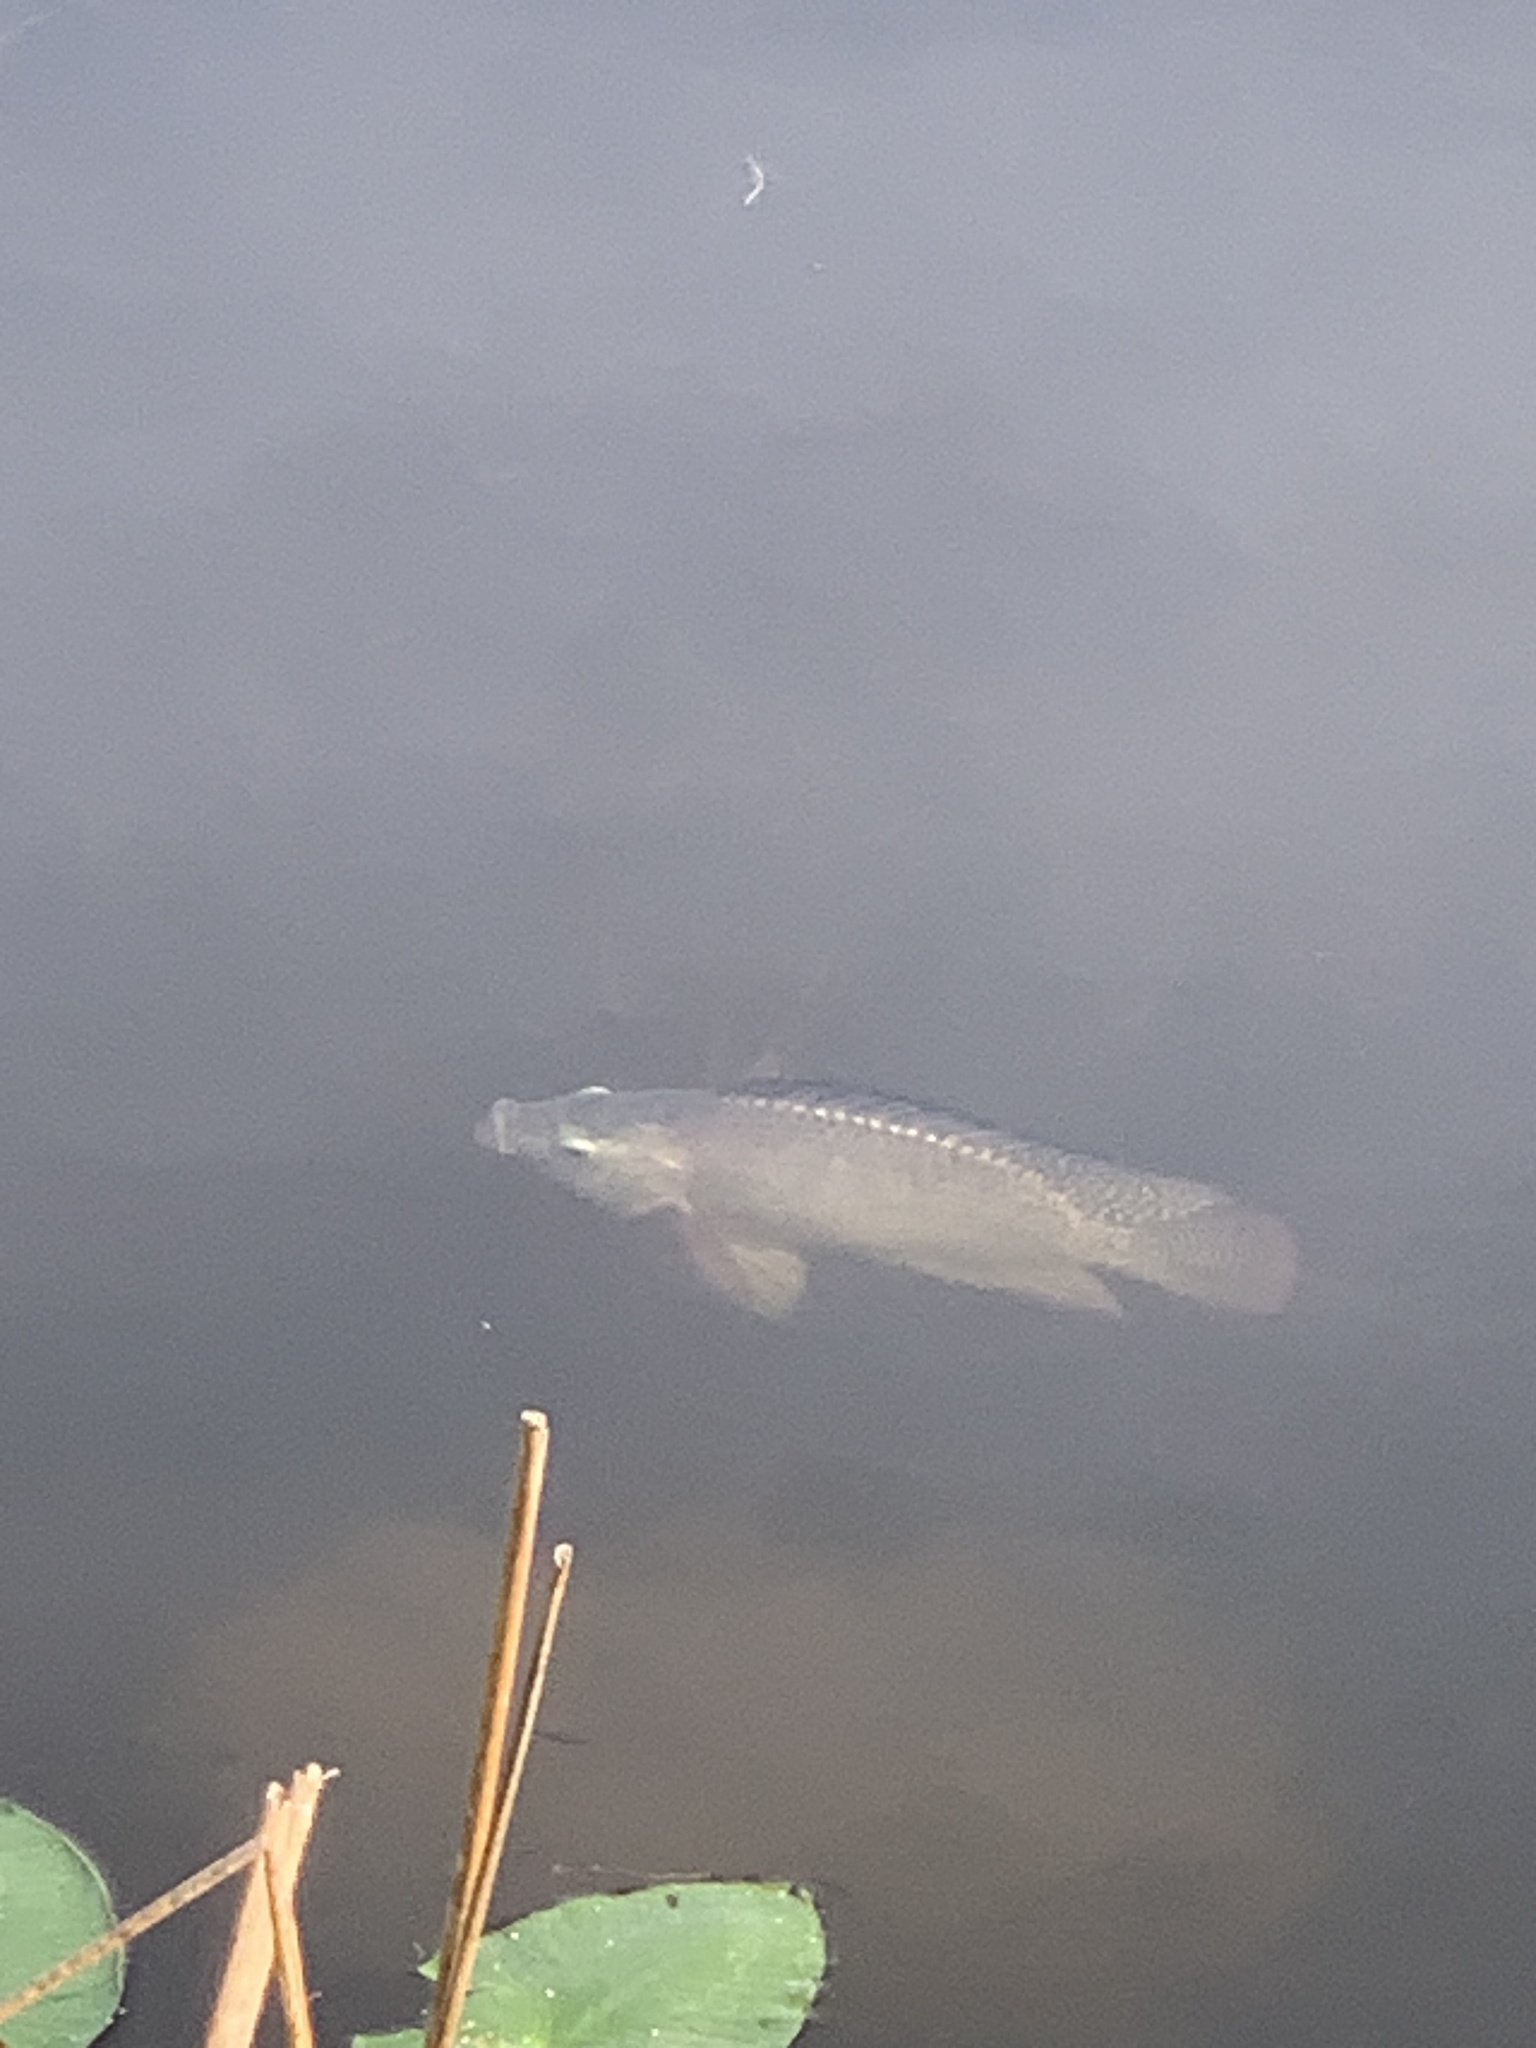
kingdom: Animalia
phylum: Chordata
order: Perciformes
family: Cichlidae
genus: Oreochromis
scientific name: Oreochromis niloticus
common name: Nile tilapia
